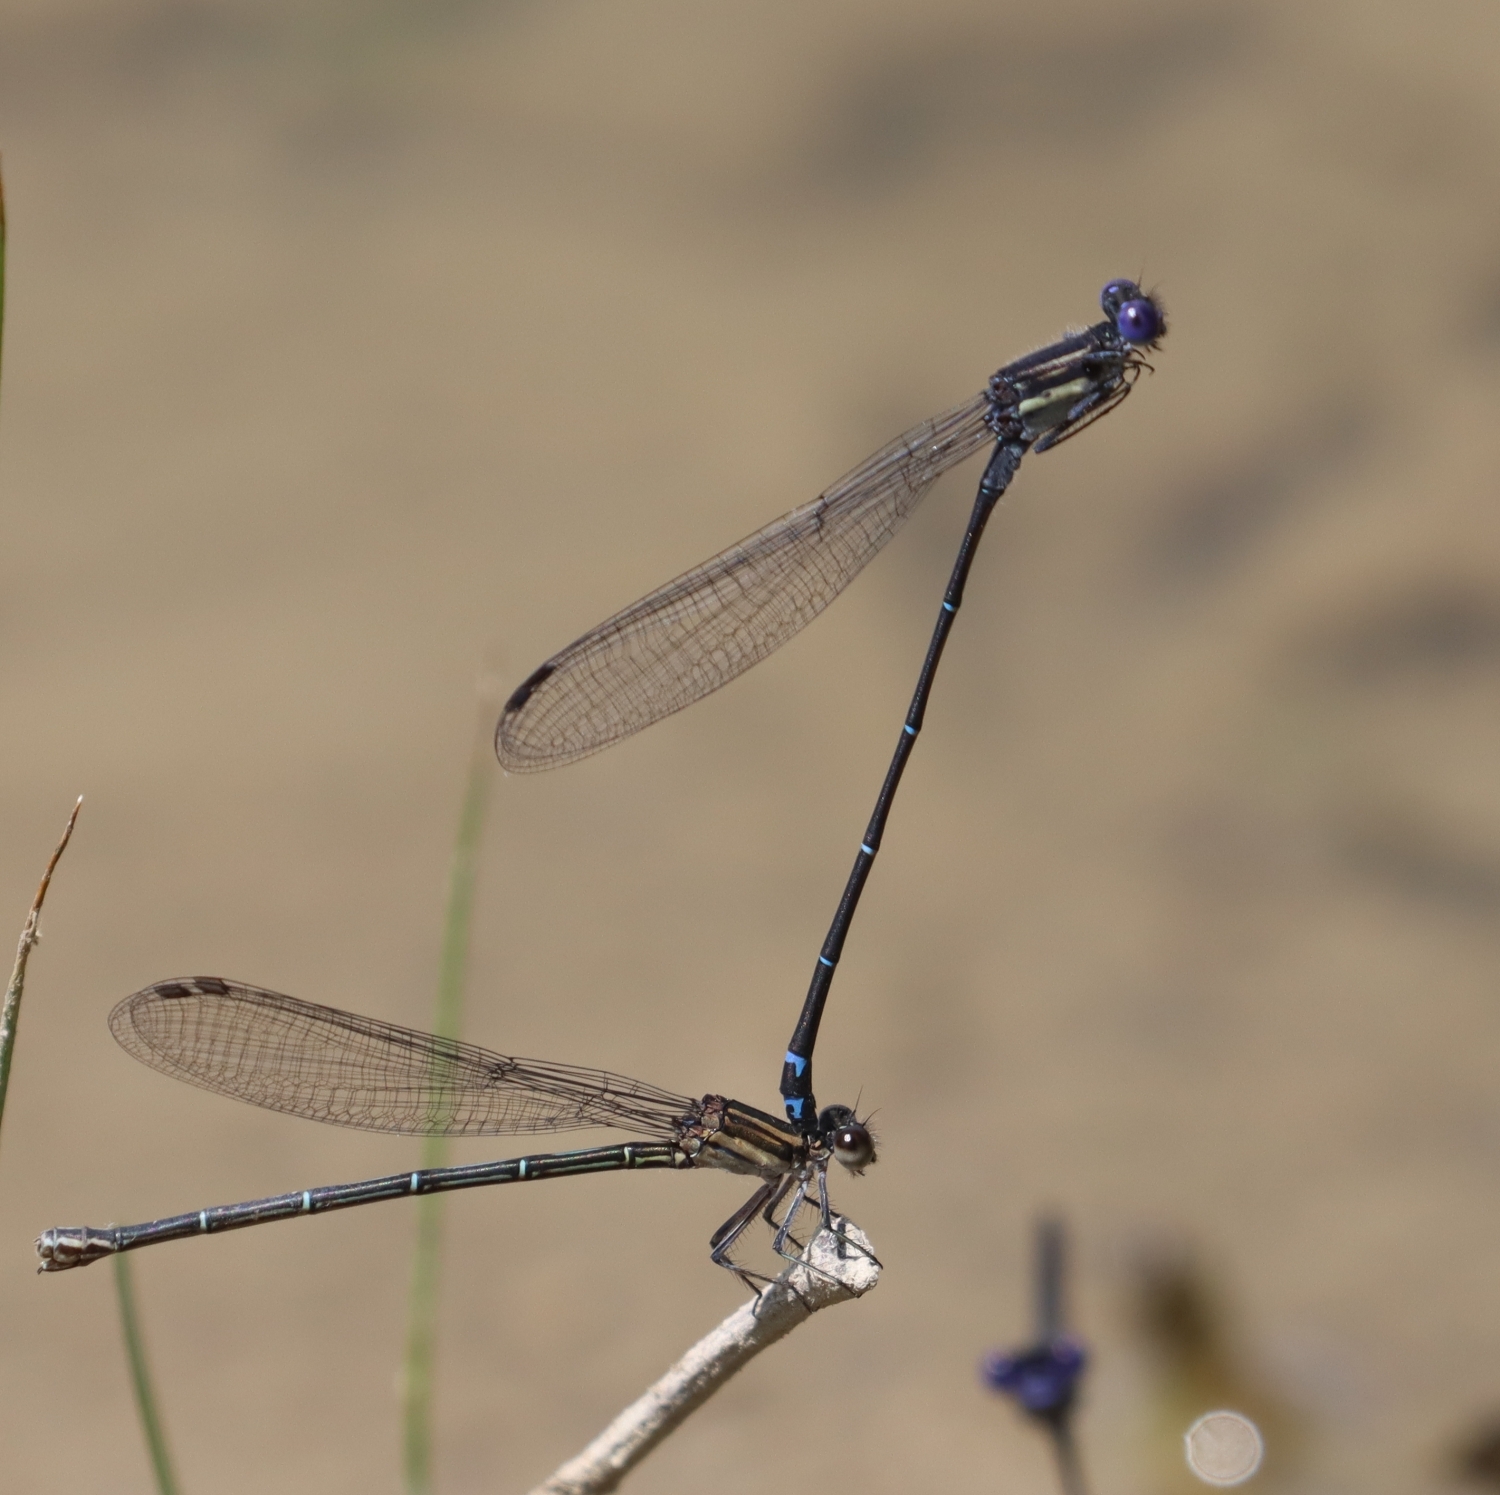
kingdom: Animalia
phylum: Arthropoda
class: Insecta
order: Odonata
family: Coenagrionidae
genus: Argia
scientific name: Argia translata
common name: Dusky dancer
